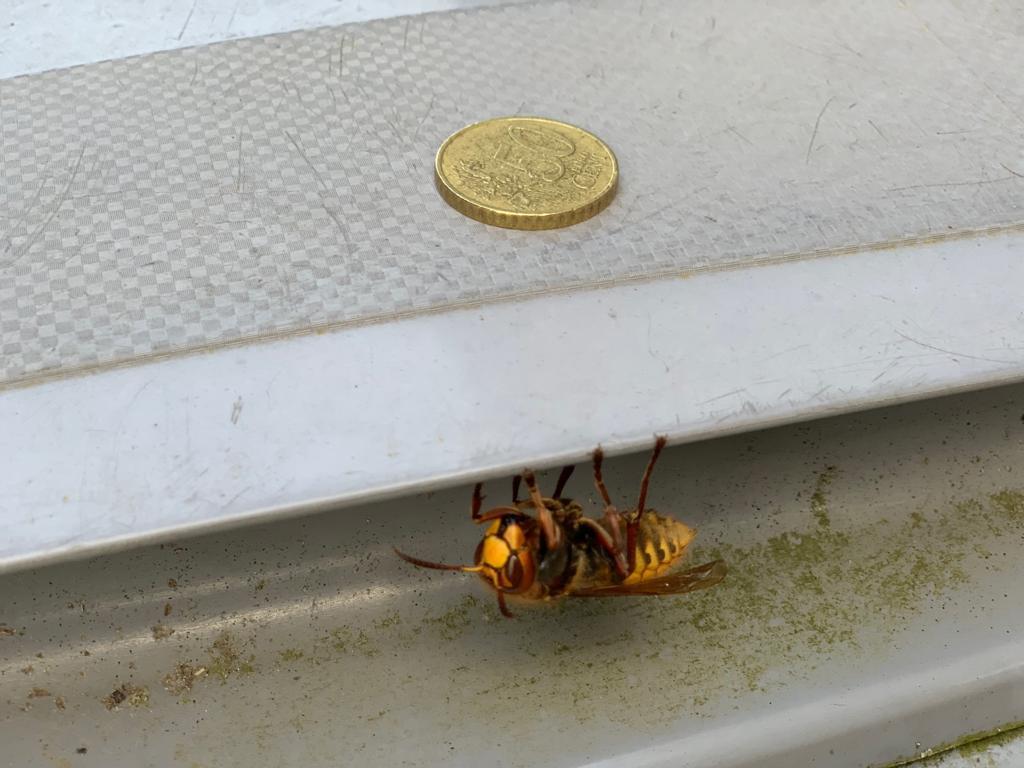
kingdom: Animalia
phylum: Arthropoda
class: Insecta
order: Hymenoptera
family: Vespidae
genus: Vespa
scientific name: Vespa crabro
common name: Hornet
